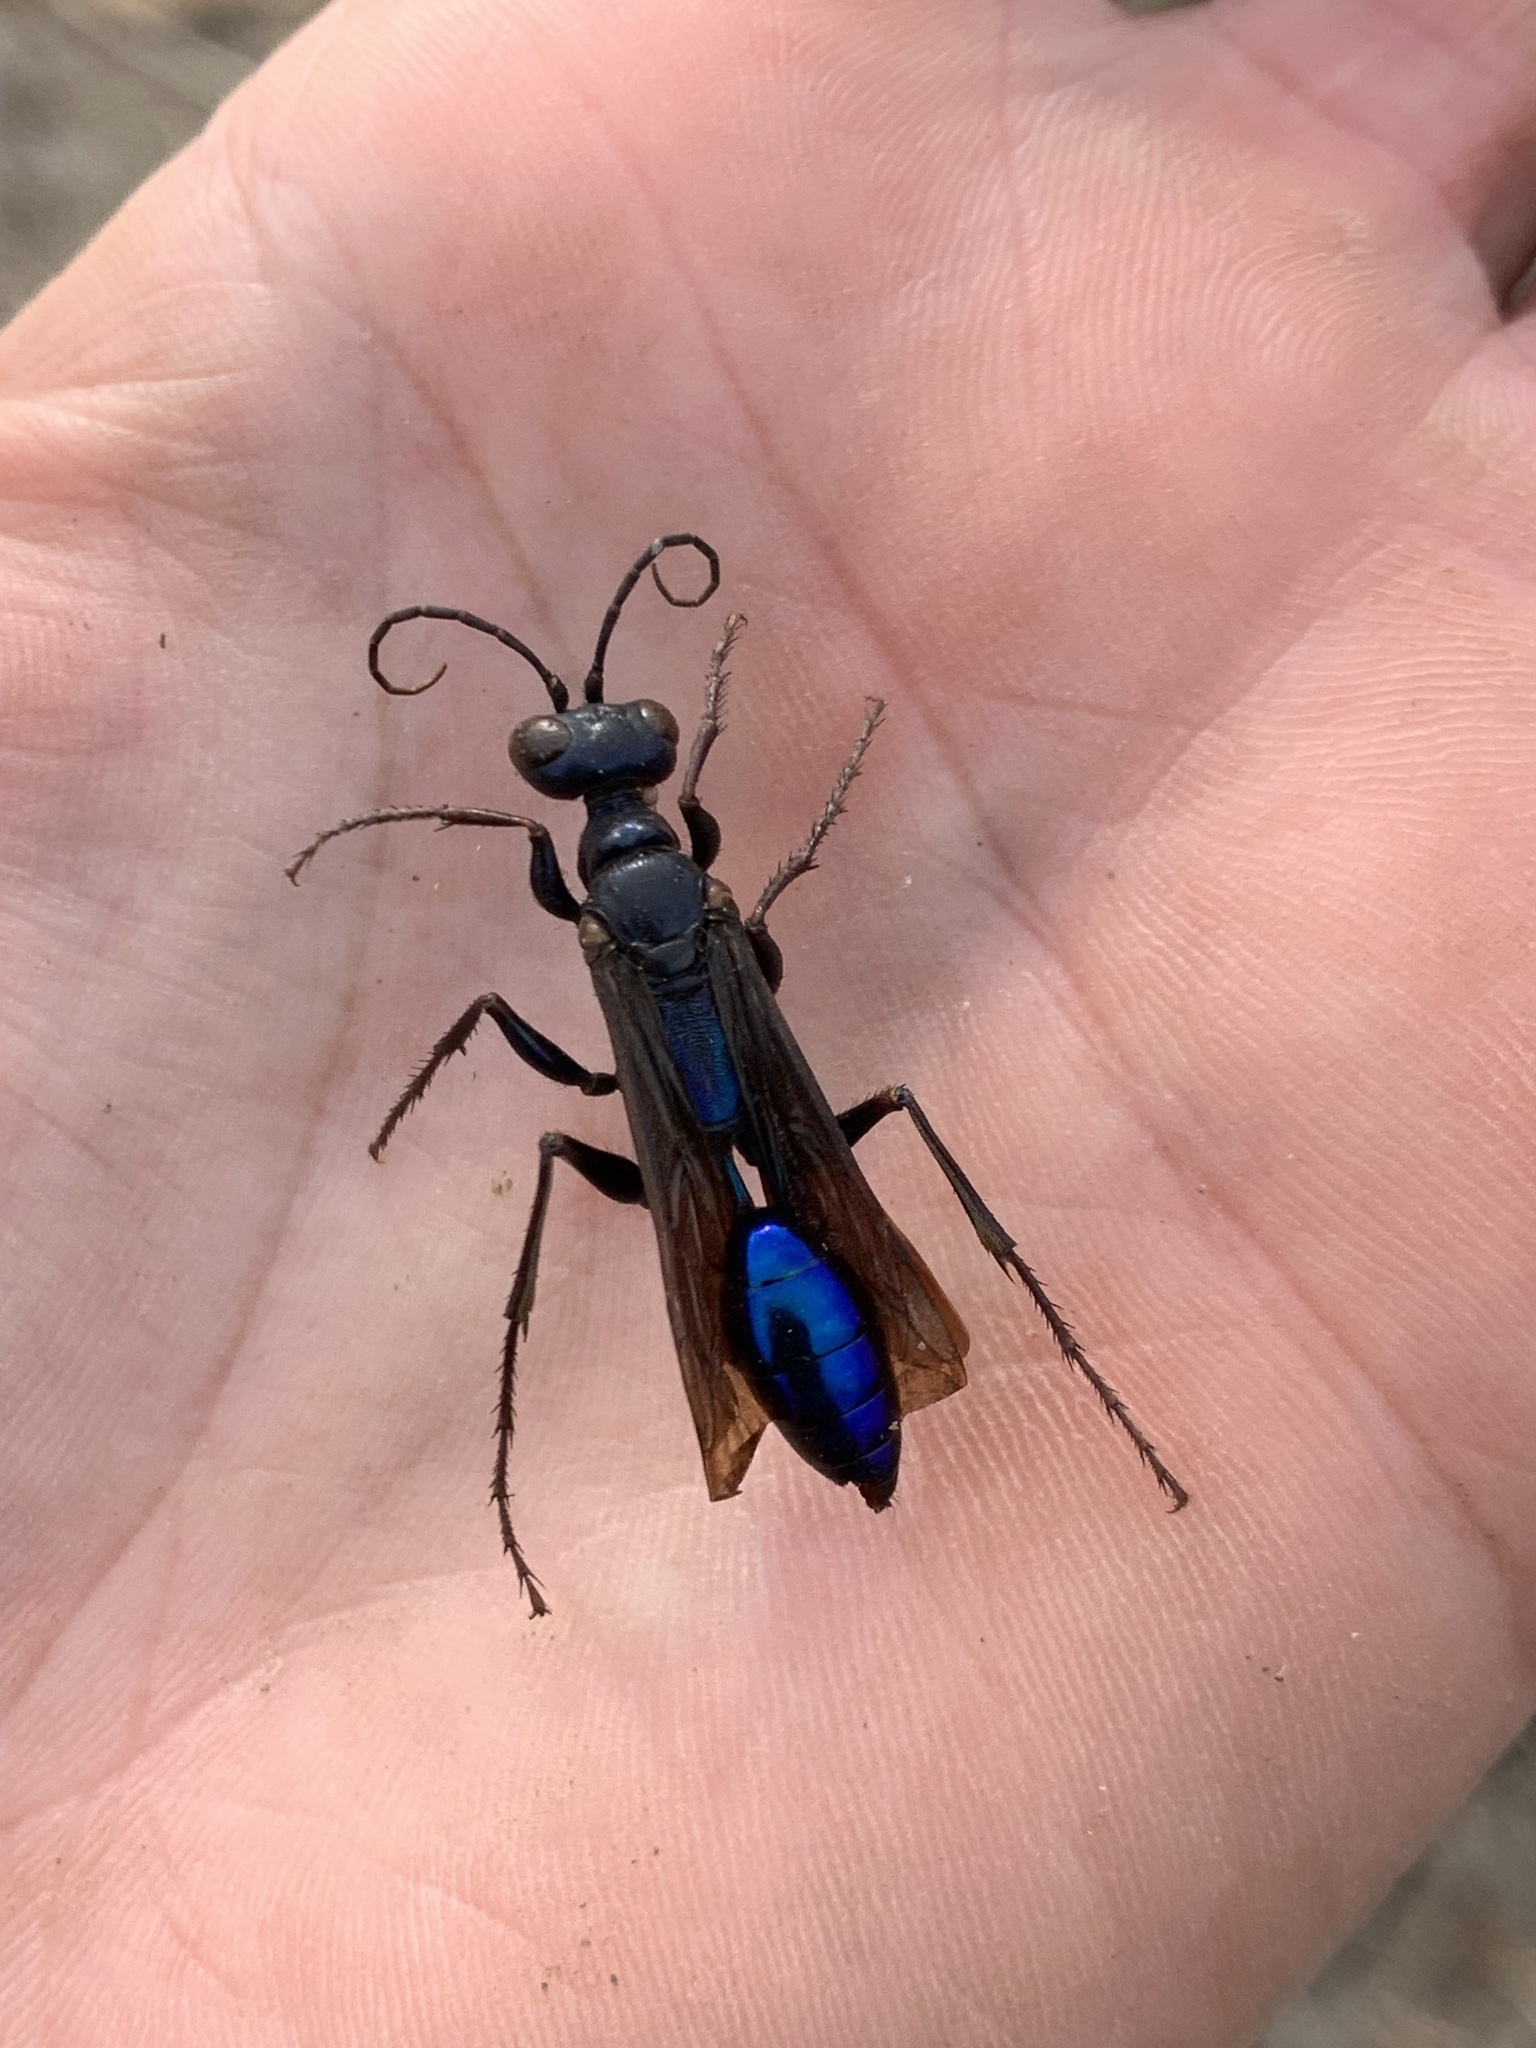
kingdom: Animalia
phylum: Arthropoda
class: Insecta
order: Hymenoptera
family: Sphecidae
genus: Chlorion
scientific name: Chlorion
